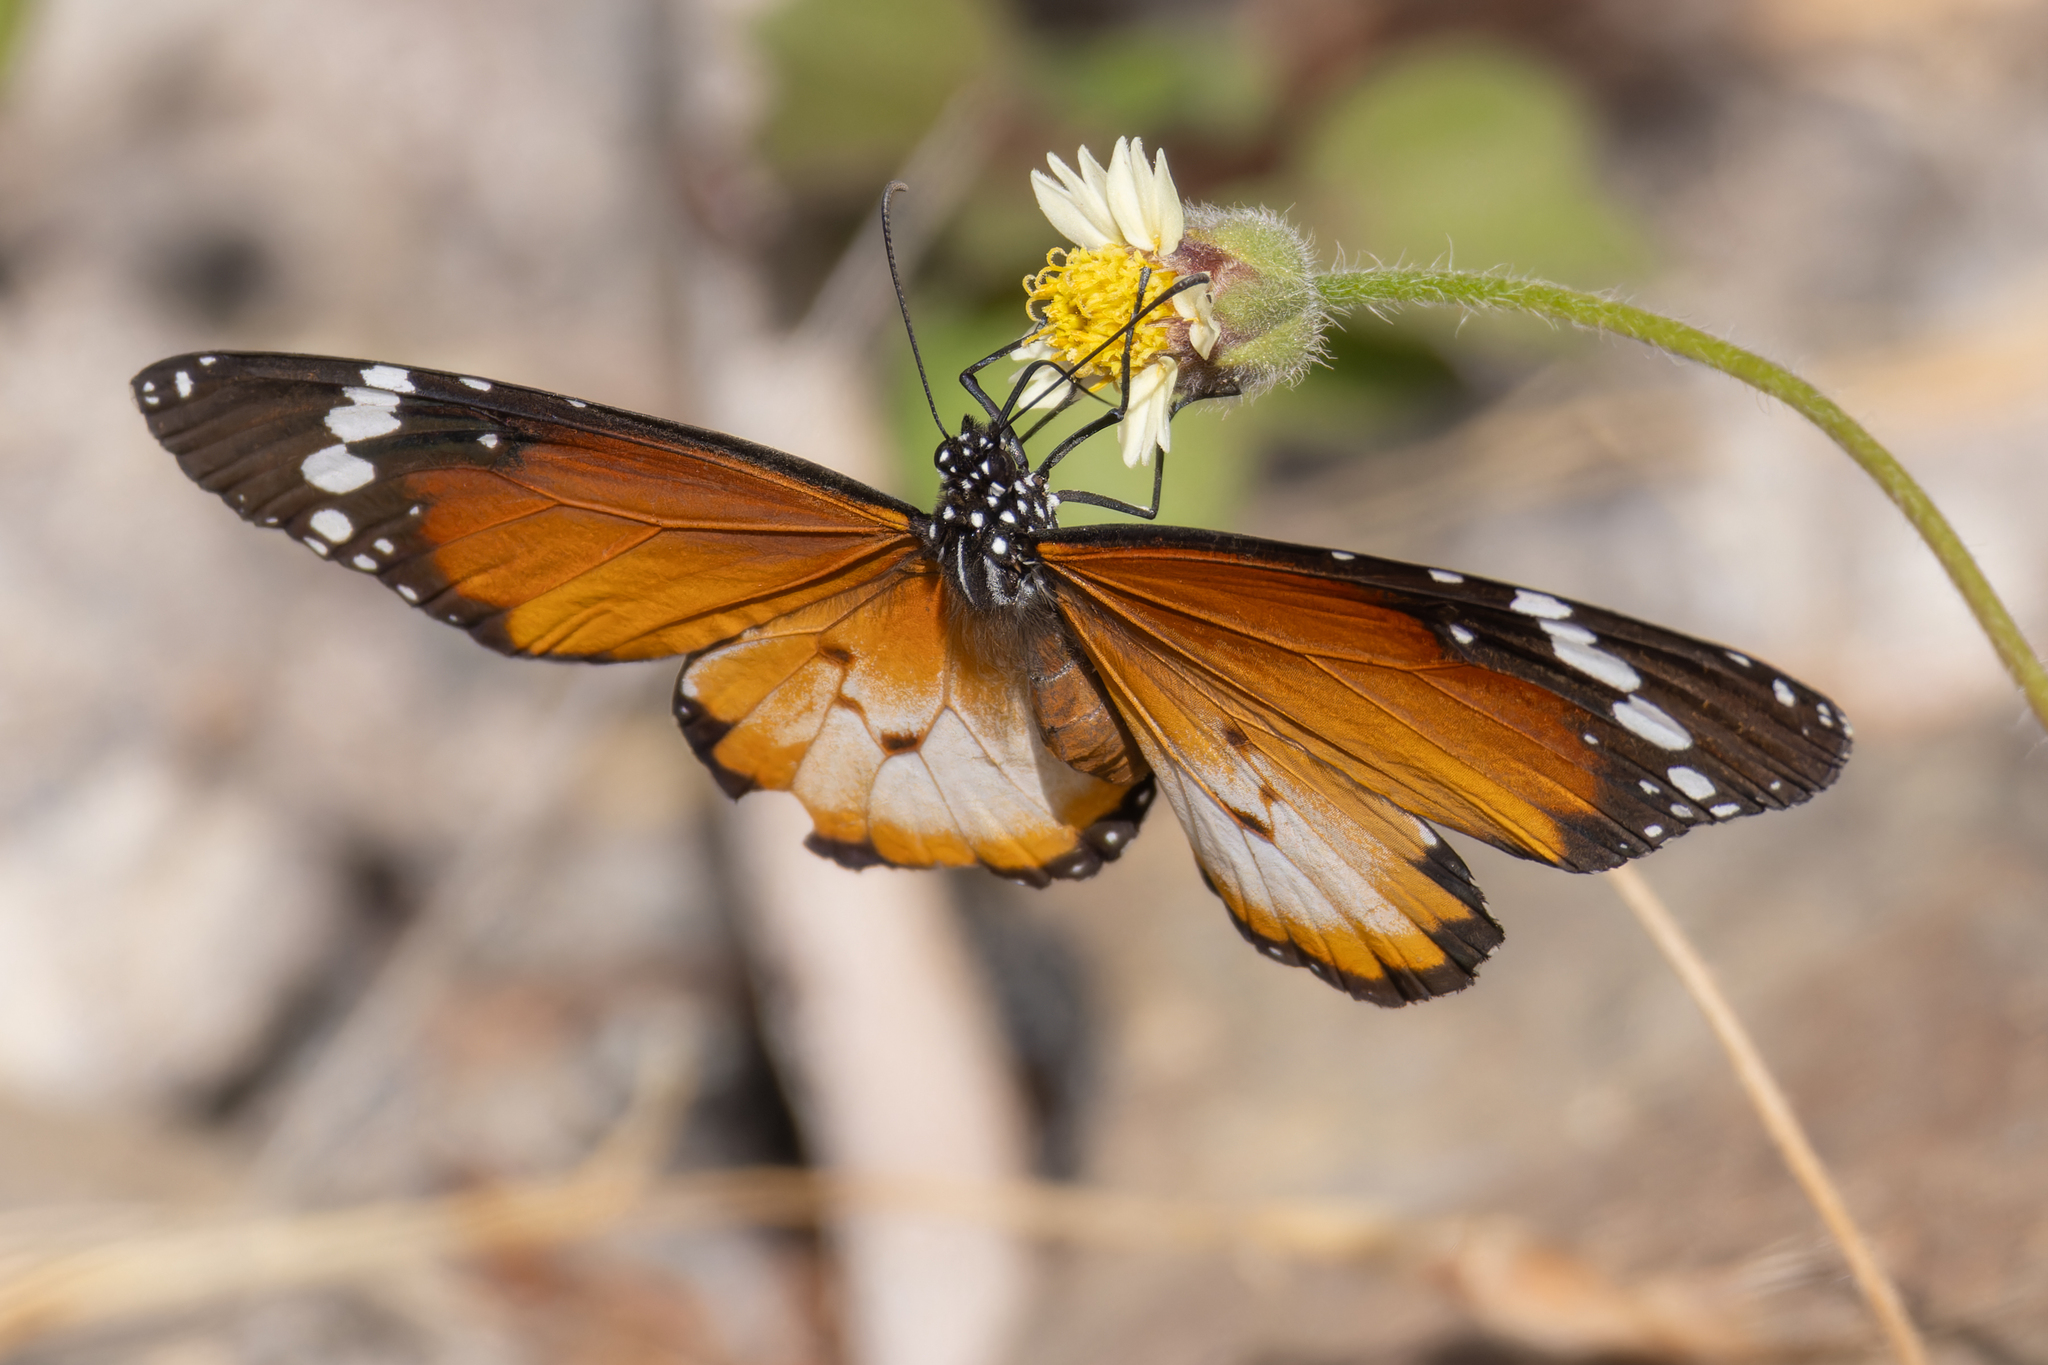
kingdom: Animalia
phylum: Arthropoda
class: Insecta
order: Lepidoptera
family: Nymphalidae
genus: Danaus
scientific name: Danaus chrysippus
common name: Plain tiger
